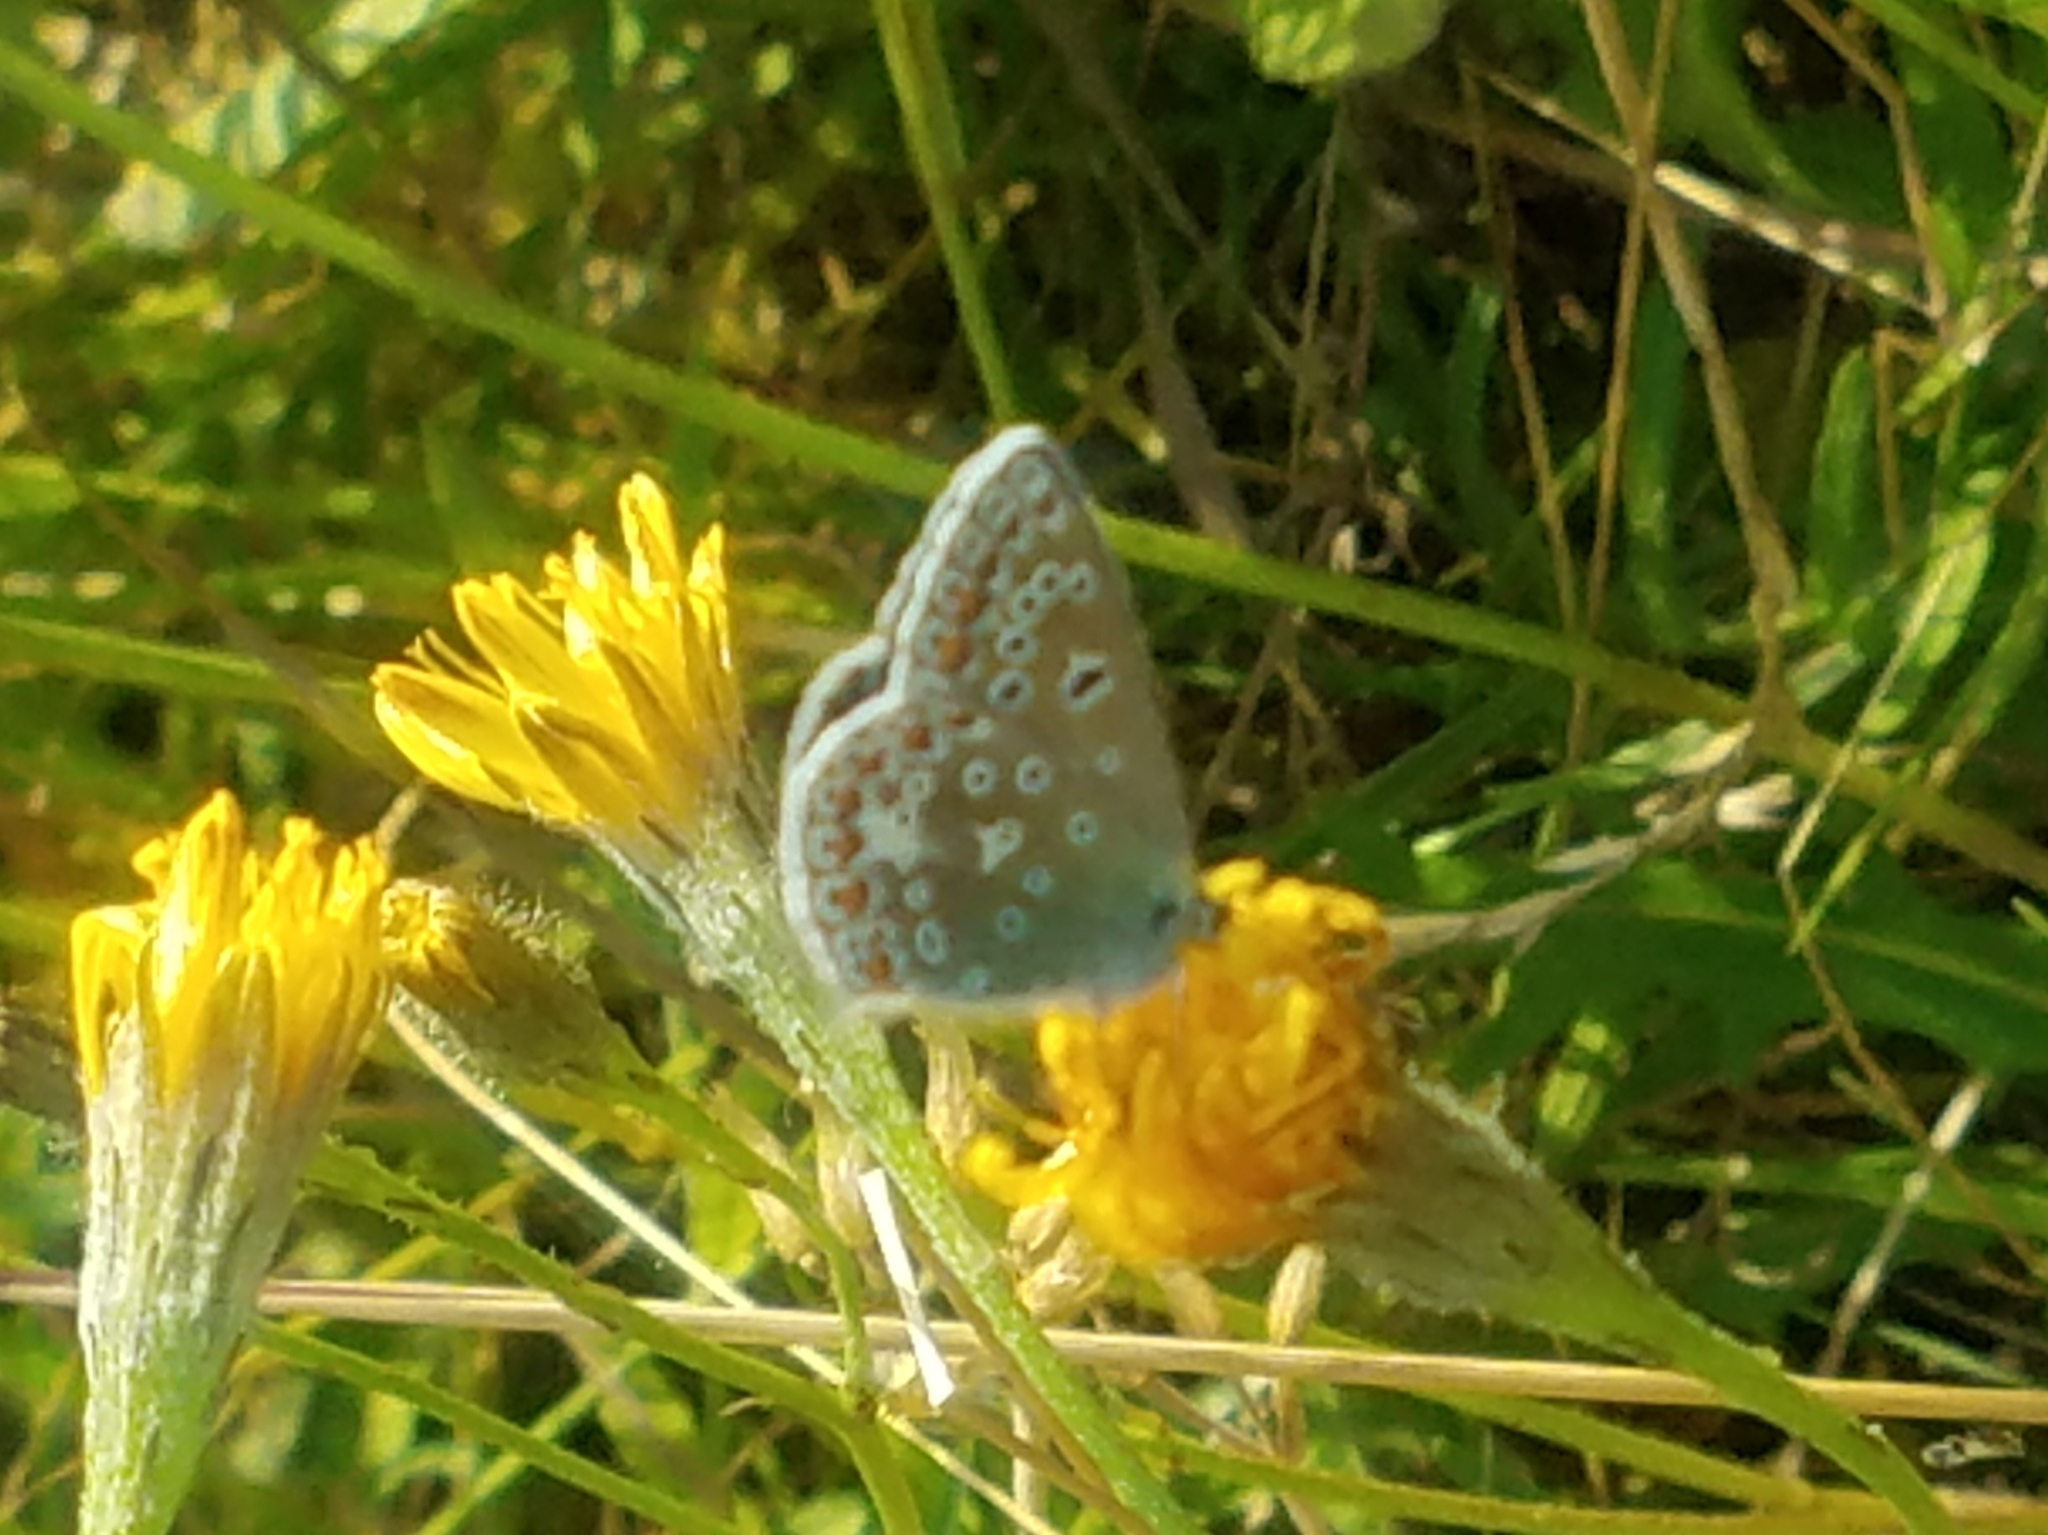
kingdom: Animalia
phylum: Arthropoda
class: Insecta
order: Lepidoptera
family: Lycaenidae
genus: Polyommatus
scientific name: Polyommatus icarus
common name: Common blue
